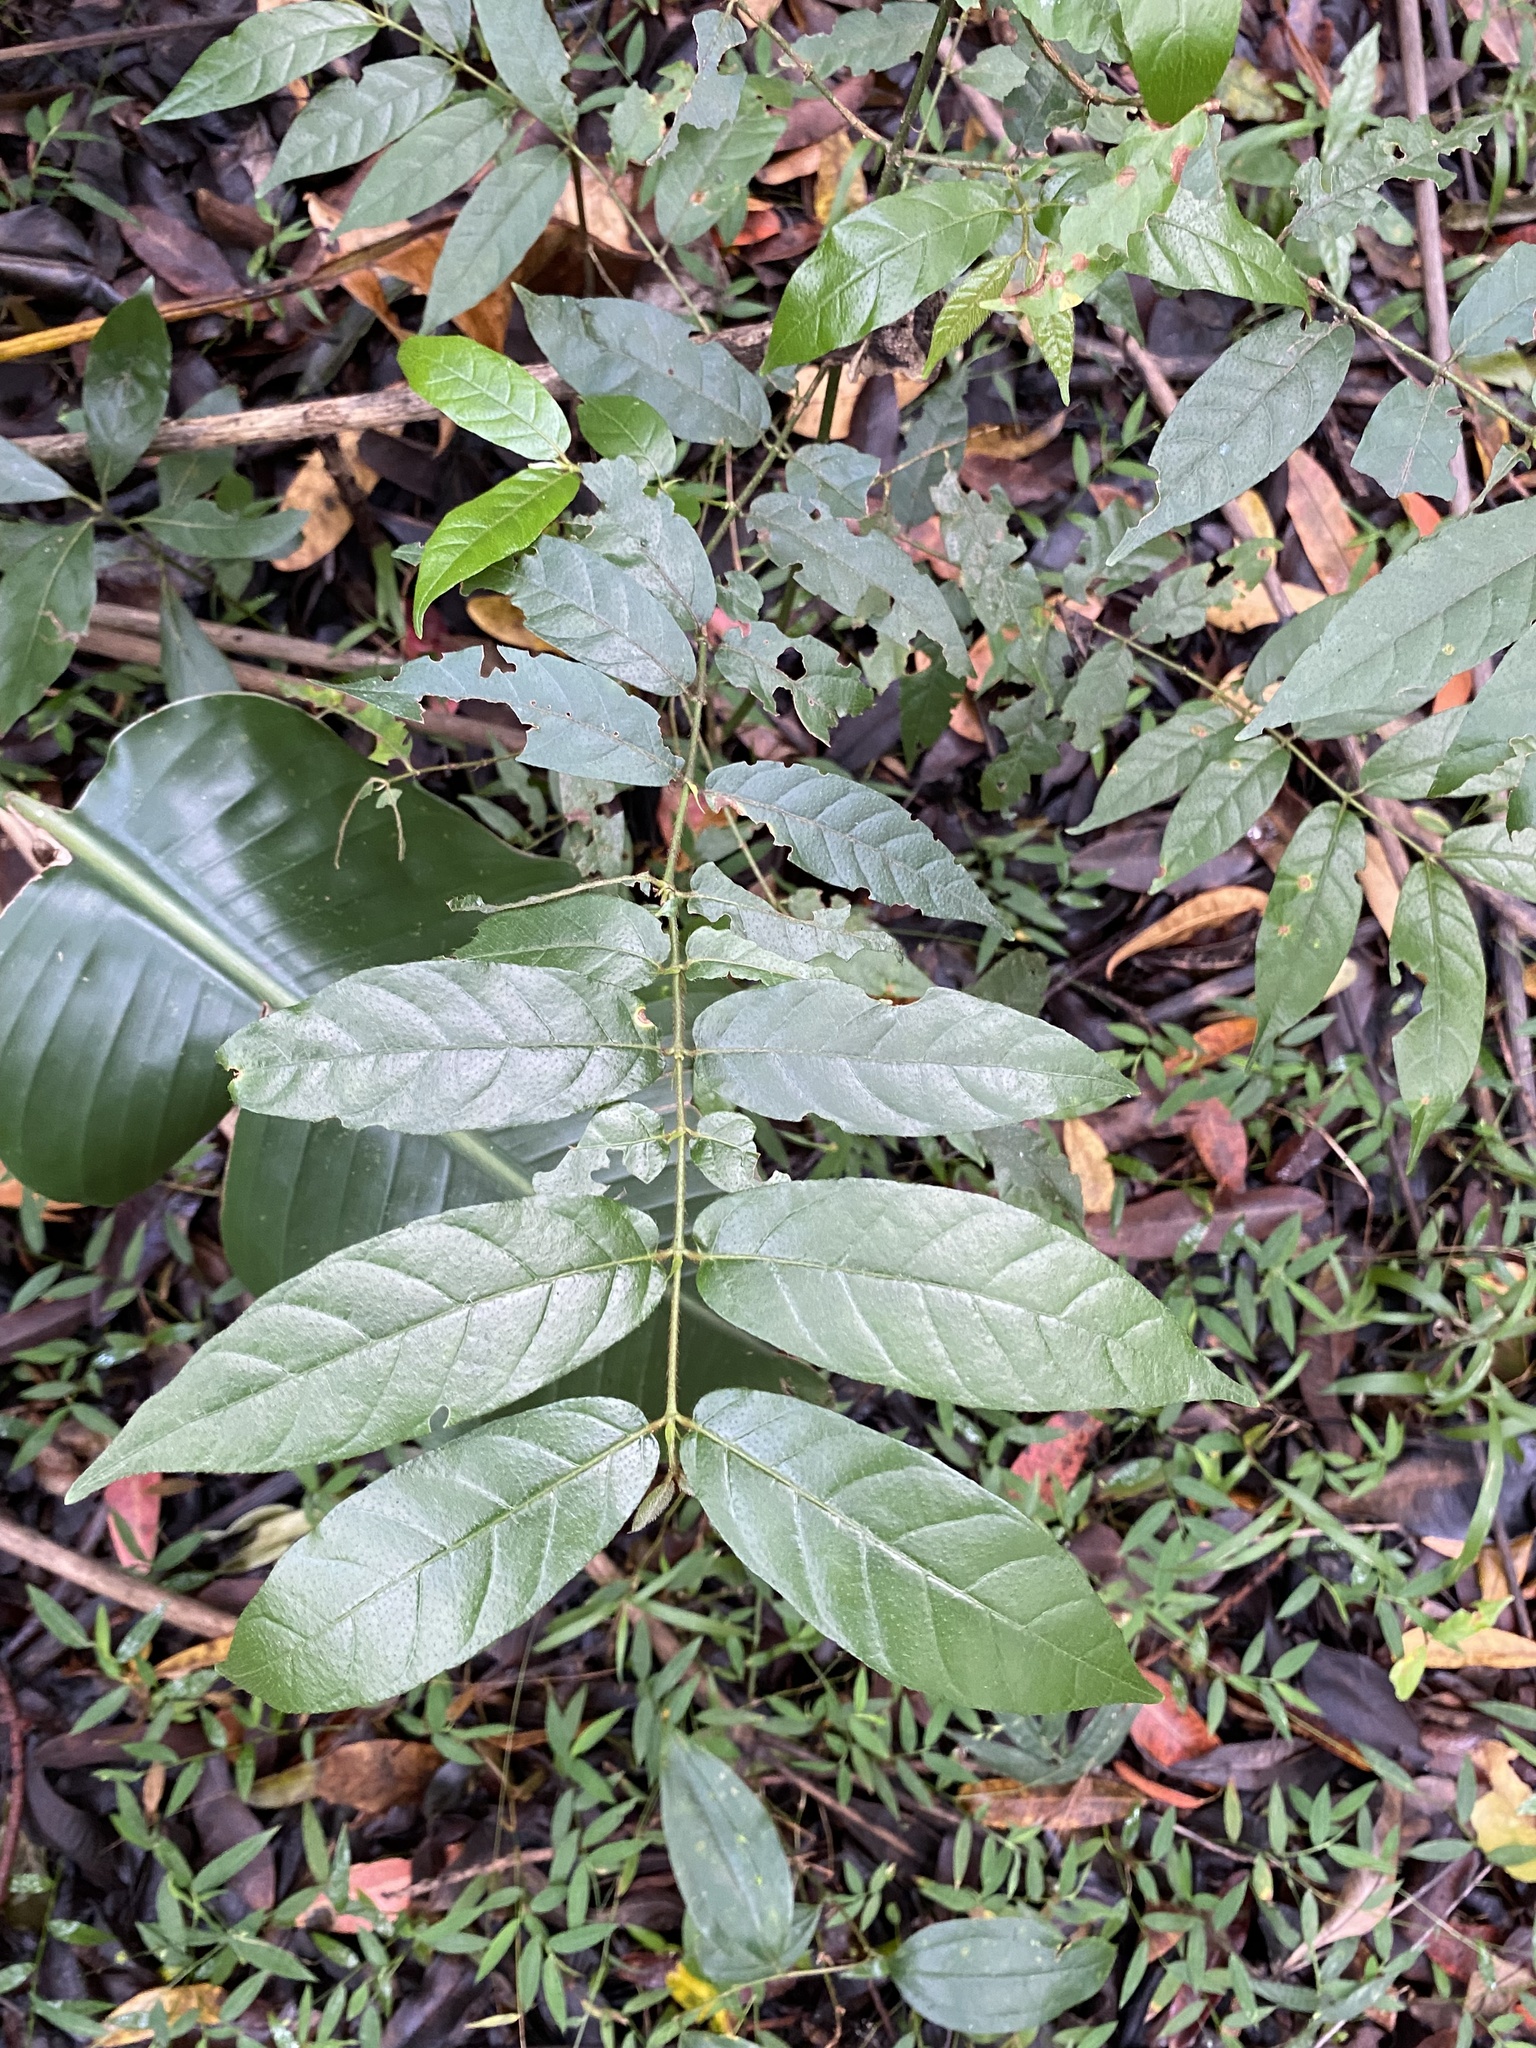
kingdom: Plantae
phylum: Tracheophyta
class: Magnoliopsida
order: Gentianales
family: Rubiaceae
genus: Keetia
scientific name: Keetia gueinzii
